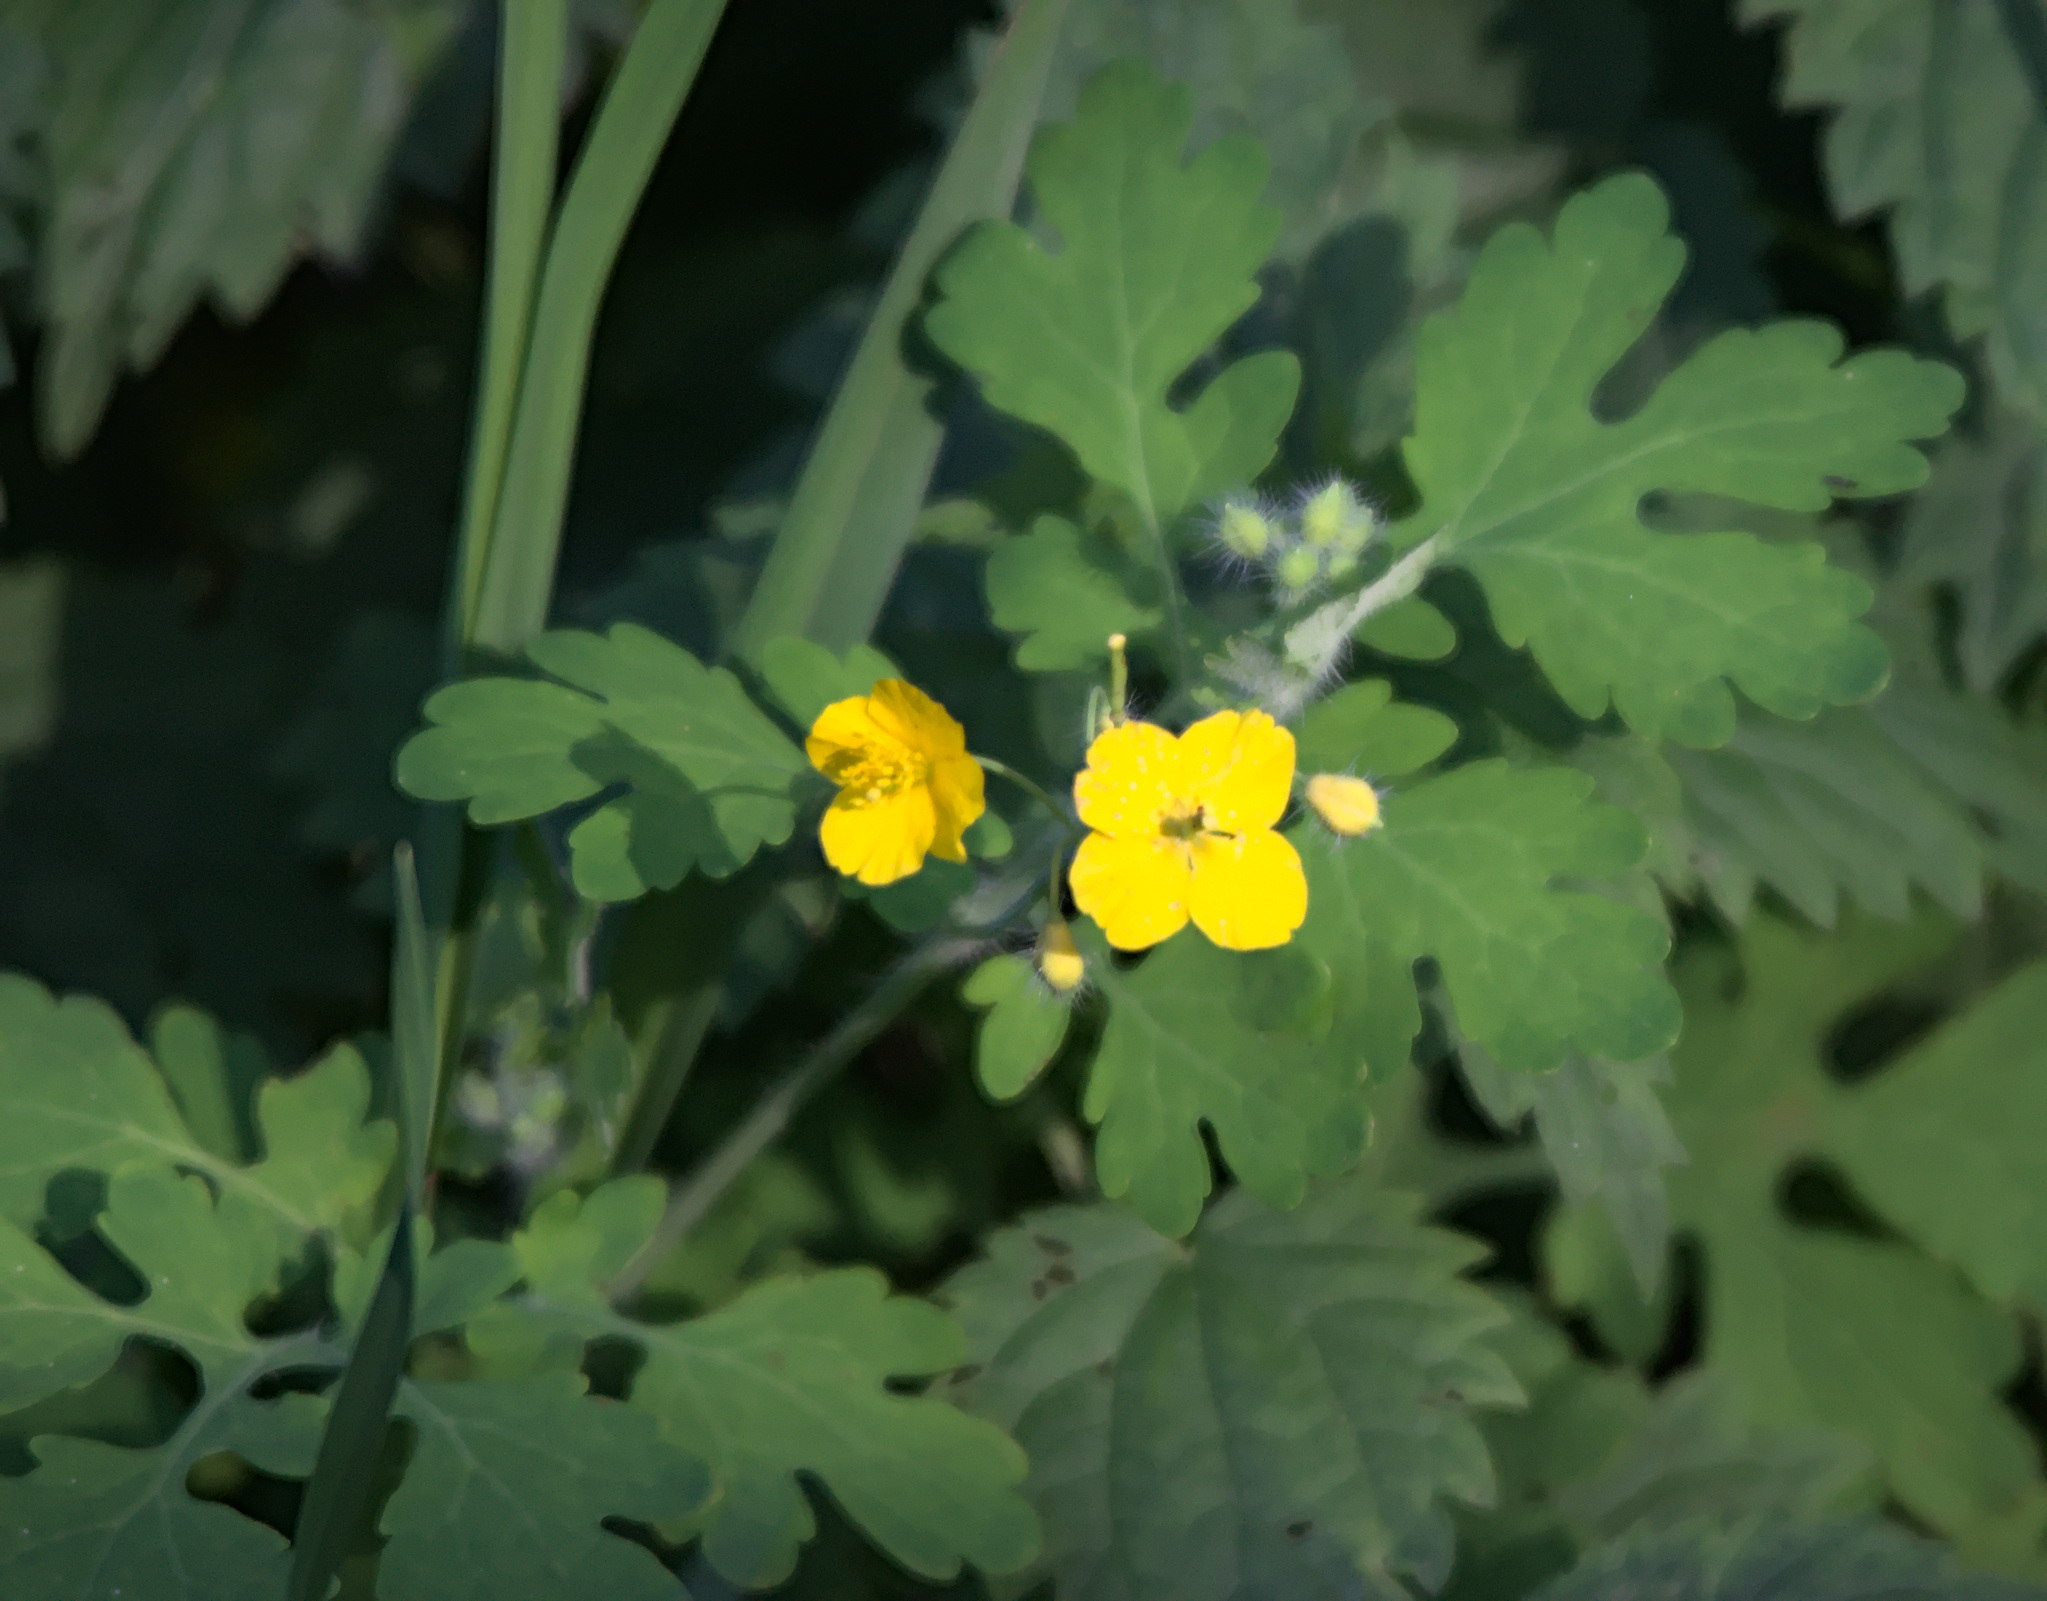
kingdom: Plantae
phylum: Tracheophyta
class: Magnoliopsida
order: Ranunculales
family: Papaveraceae
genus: Chelidonium
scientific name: Chelidonium majus
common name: Greater celandine
